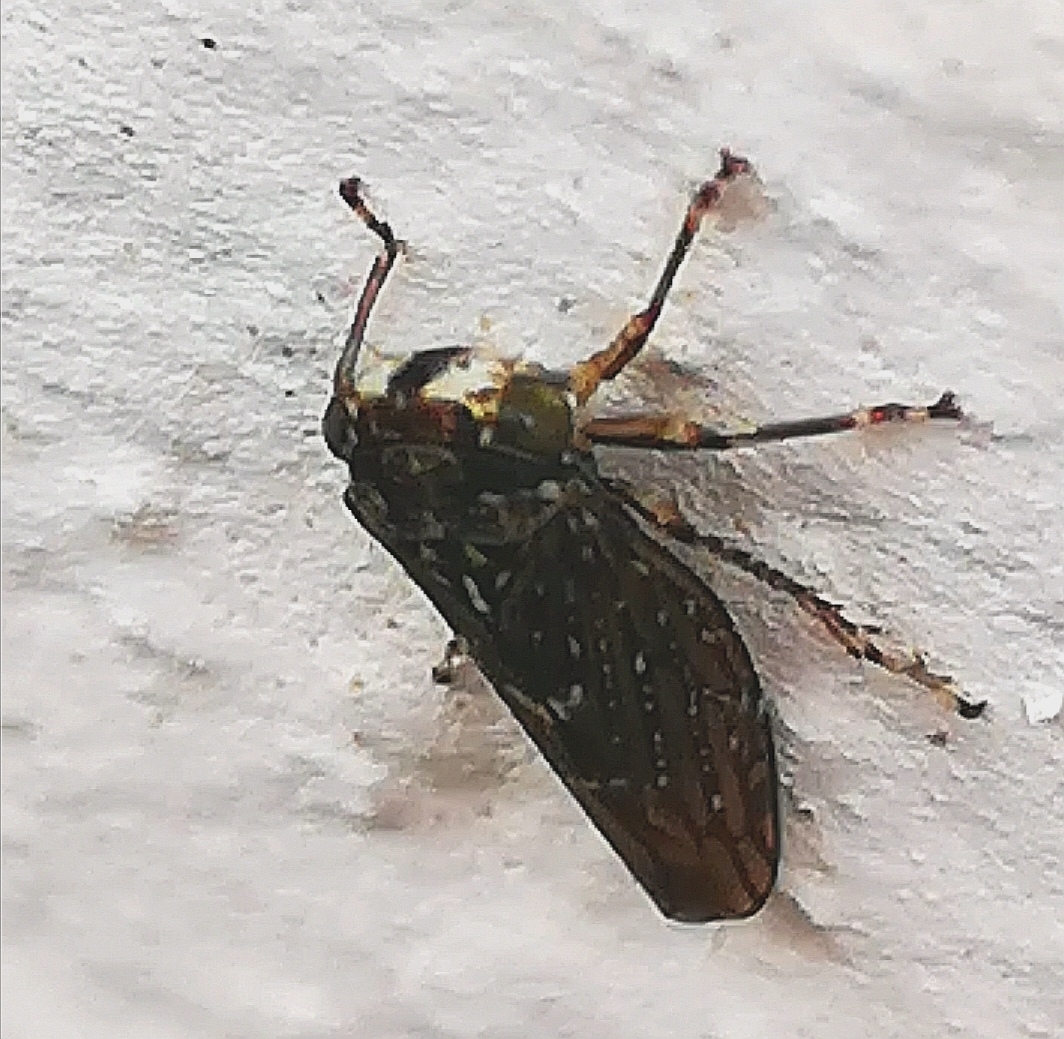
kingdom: Animalia
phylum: Arthropoda
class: Insecta
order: Hemiptera
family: Cicadellidae
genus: Acericerus
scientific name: Acericerus heydenii
